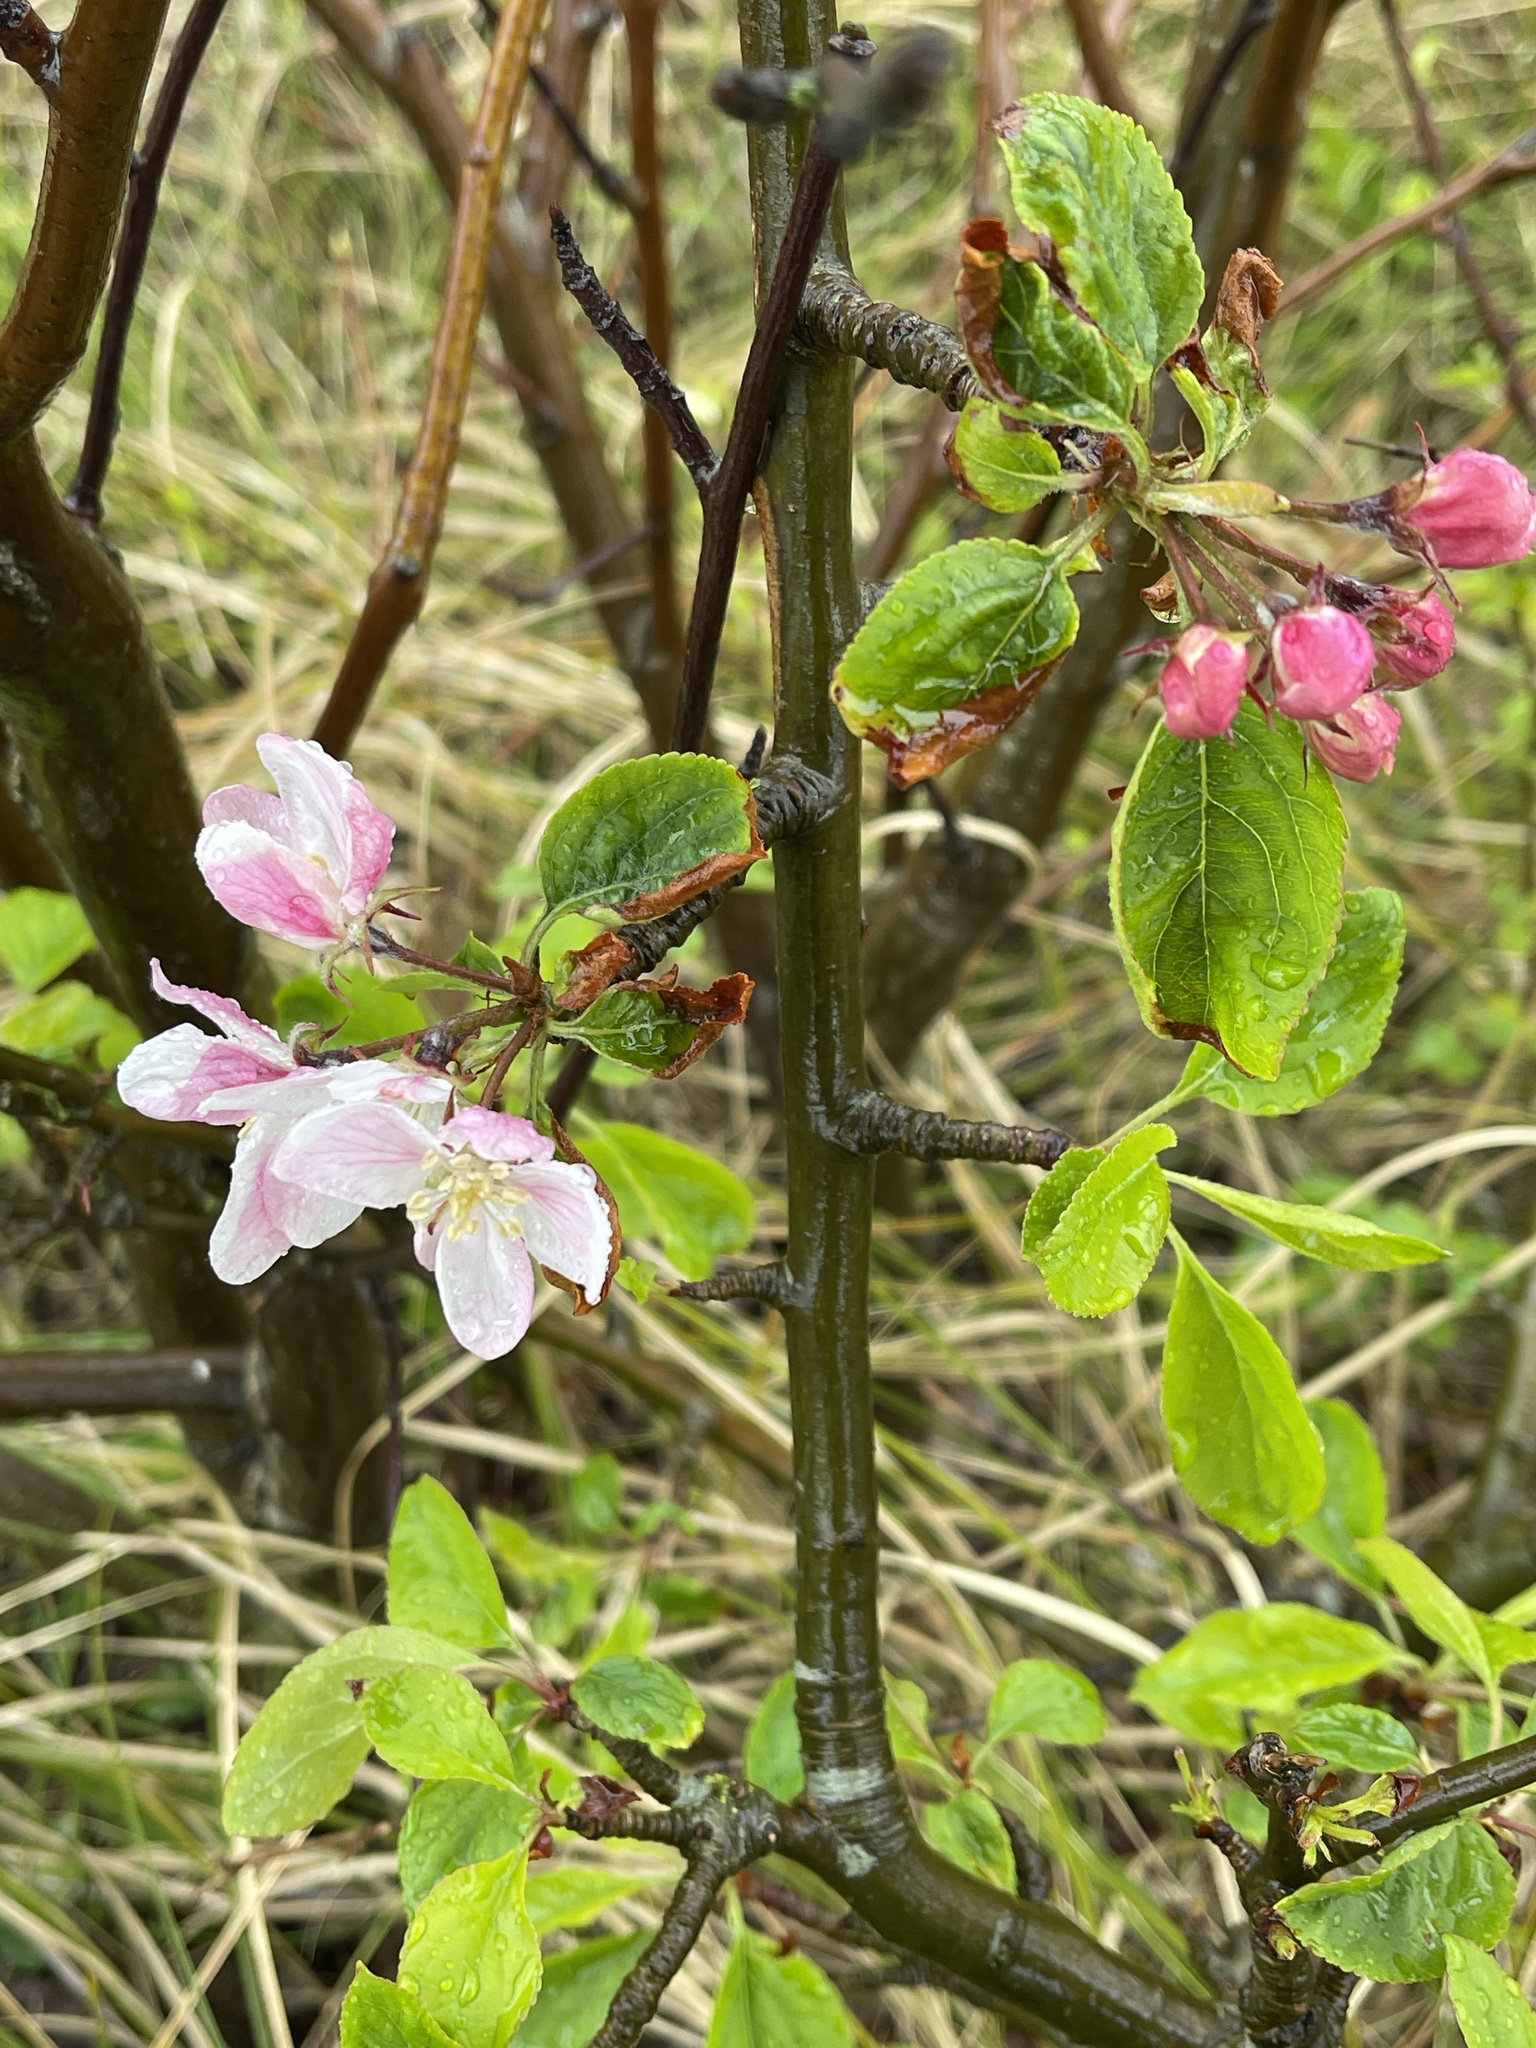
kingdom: Plantae
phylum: Tracheophyta
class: Magnoliopsida
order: Rosales
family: Rosaceae
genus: Malus
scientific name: Malus domestica
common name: Apple
